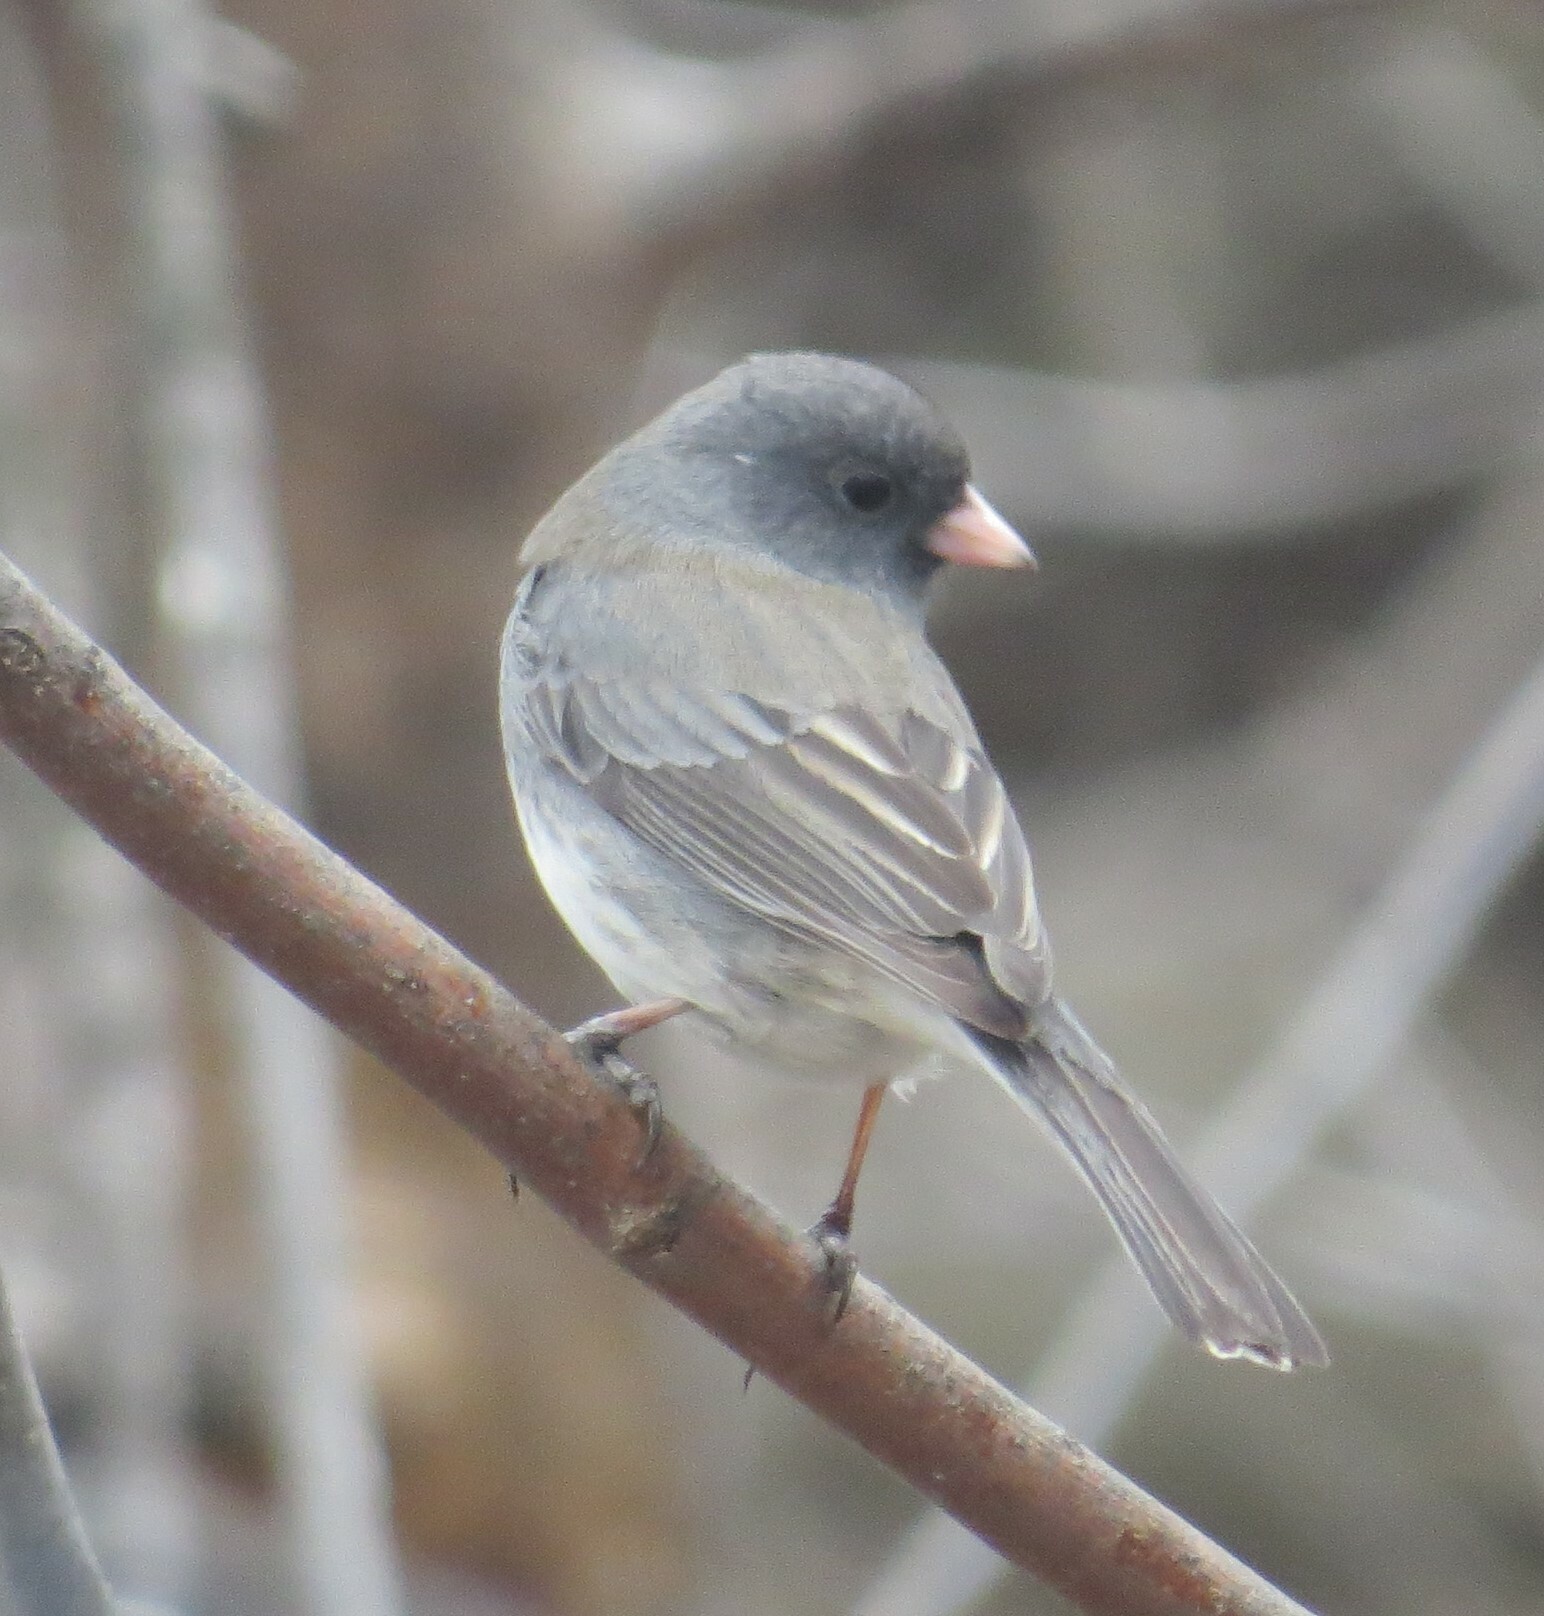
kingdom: Animalia
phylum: Chordata
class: Aves
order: Passeriformes
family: Passerellidae
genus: Junco
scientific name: Junco hyemalis
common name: Dark-eyed junco
